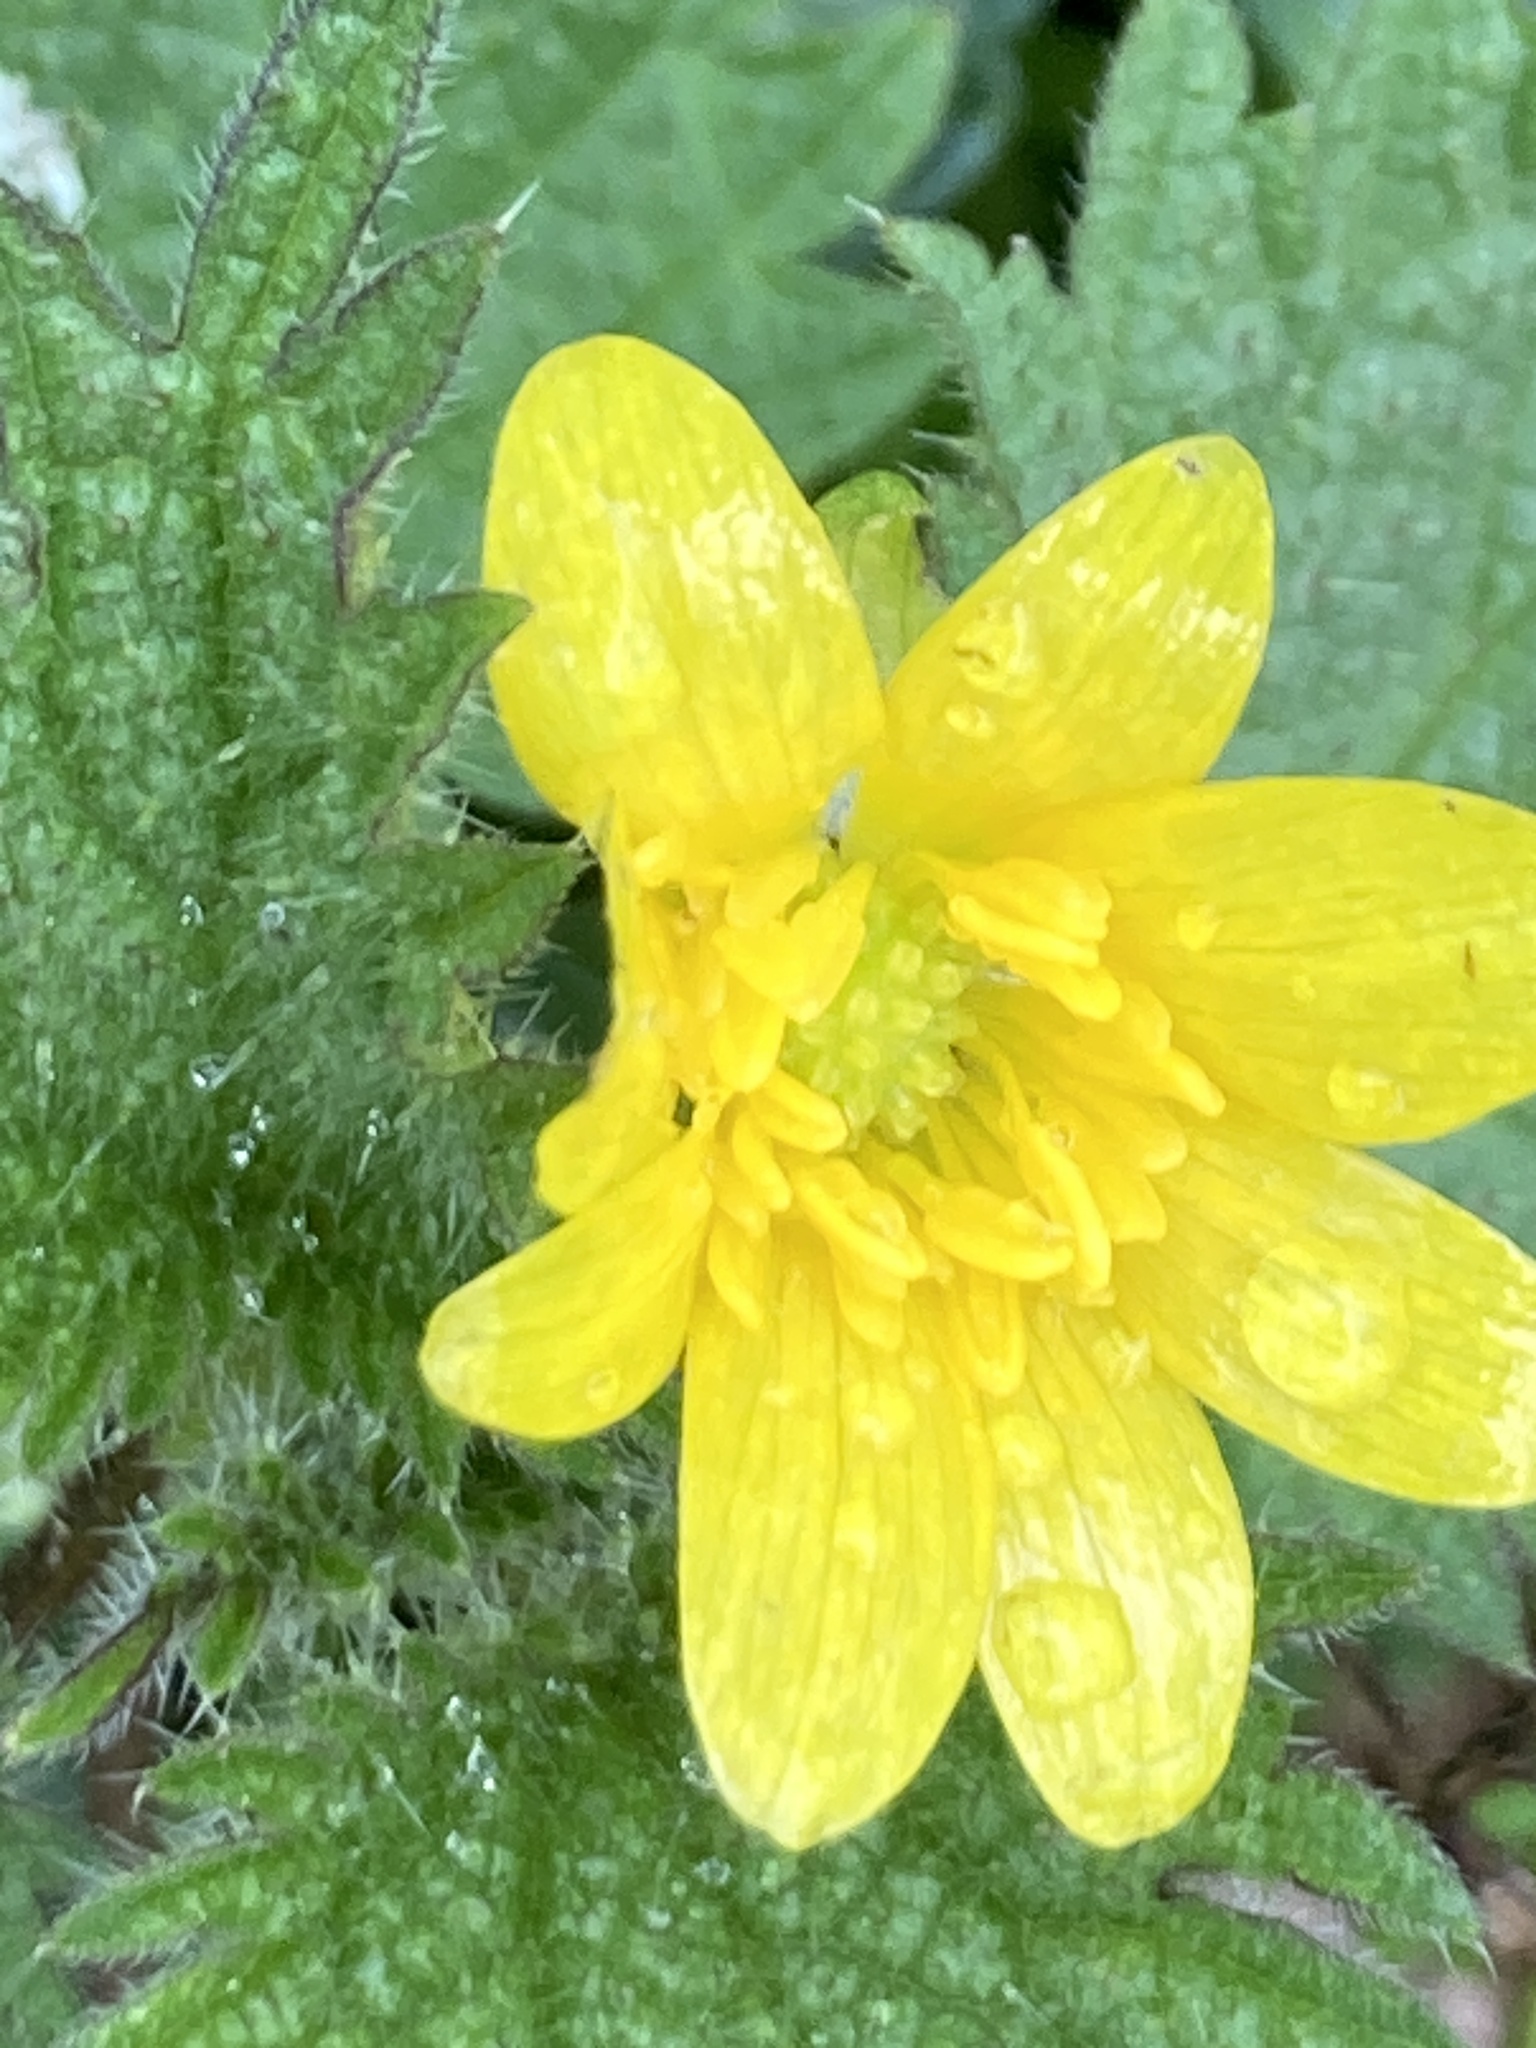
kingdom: Plantae
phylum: Tracheophyta
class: Magnoliopsida
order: Ranunculales
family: Ranunculaceae
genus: Ficaria
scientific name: Ficaria verna
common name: Lesser celandine
